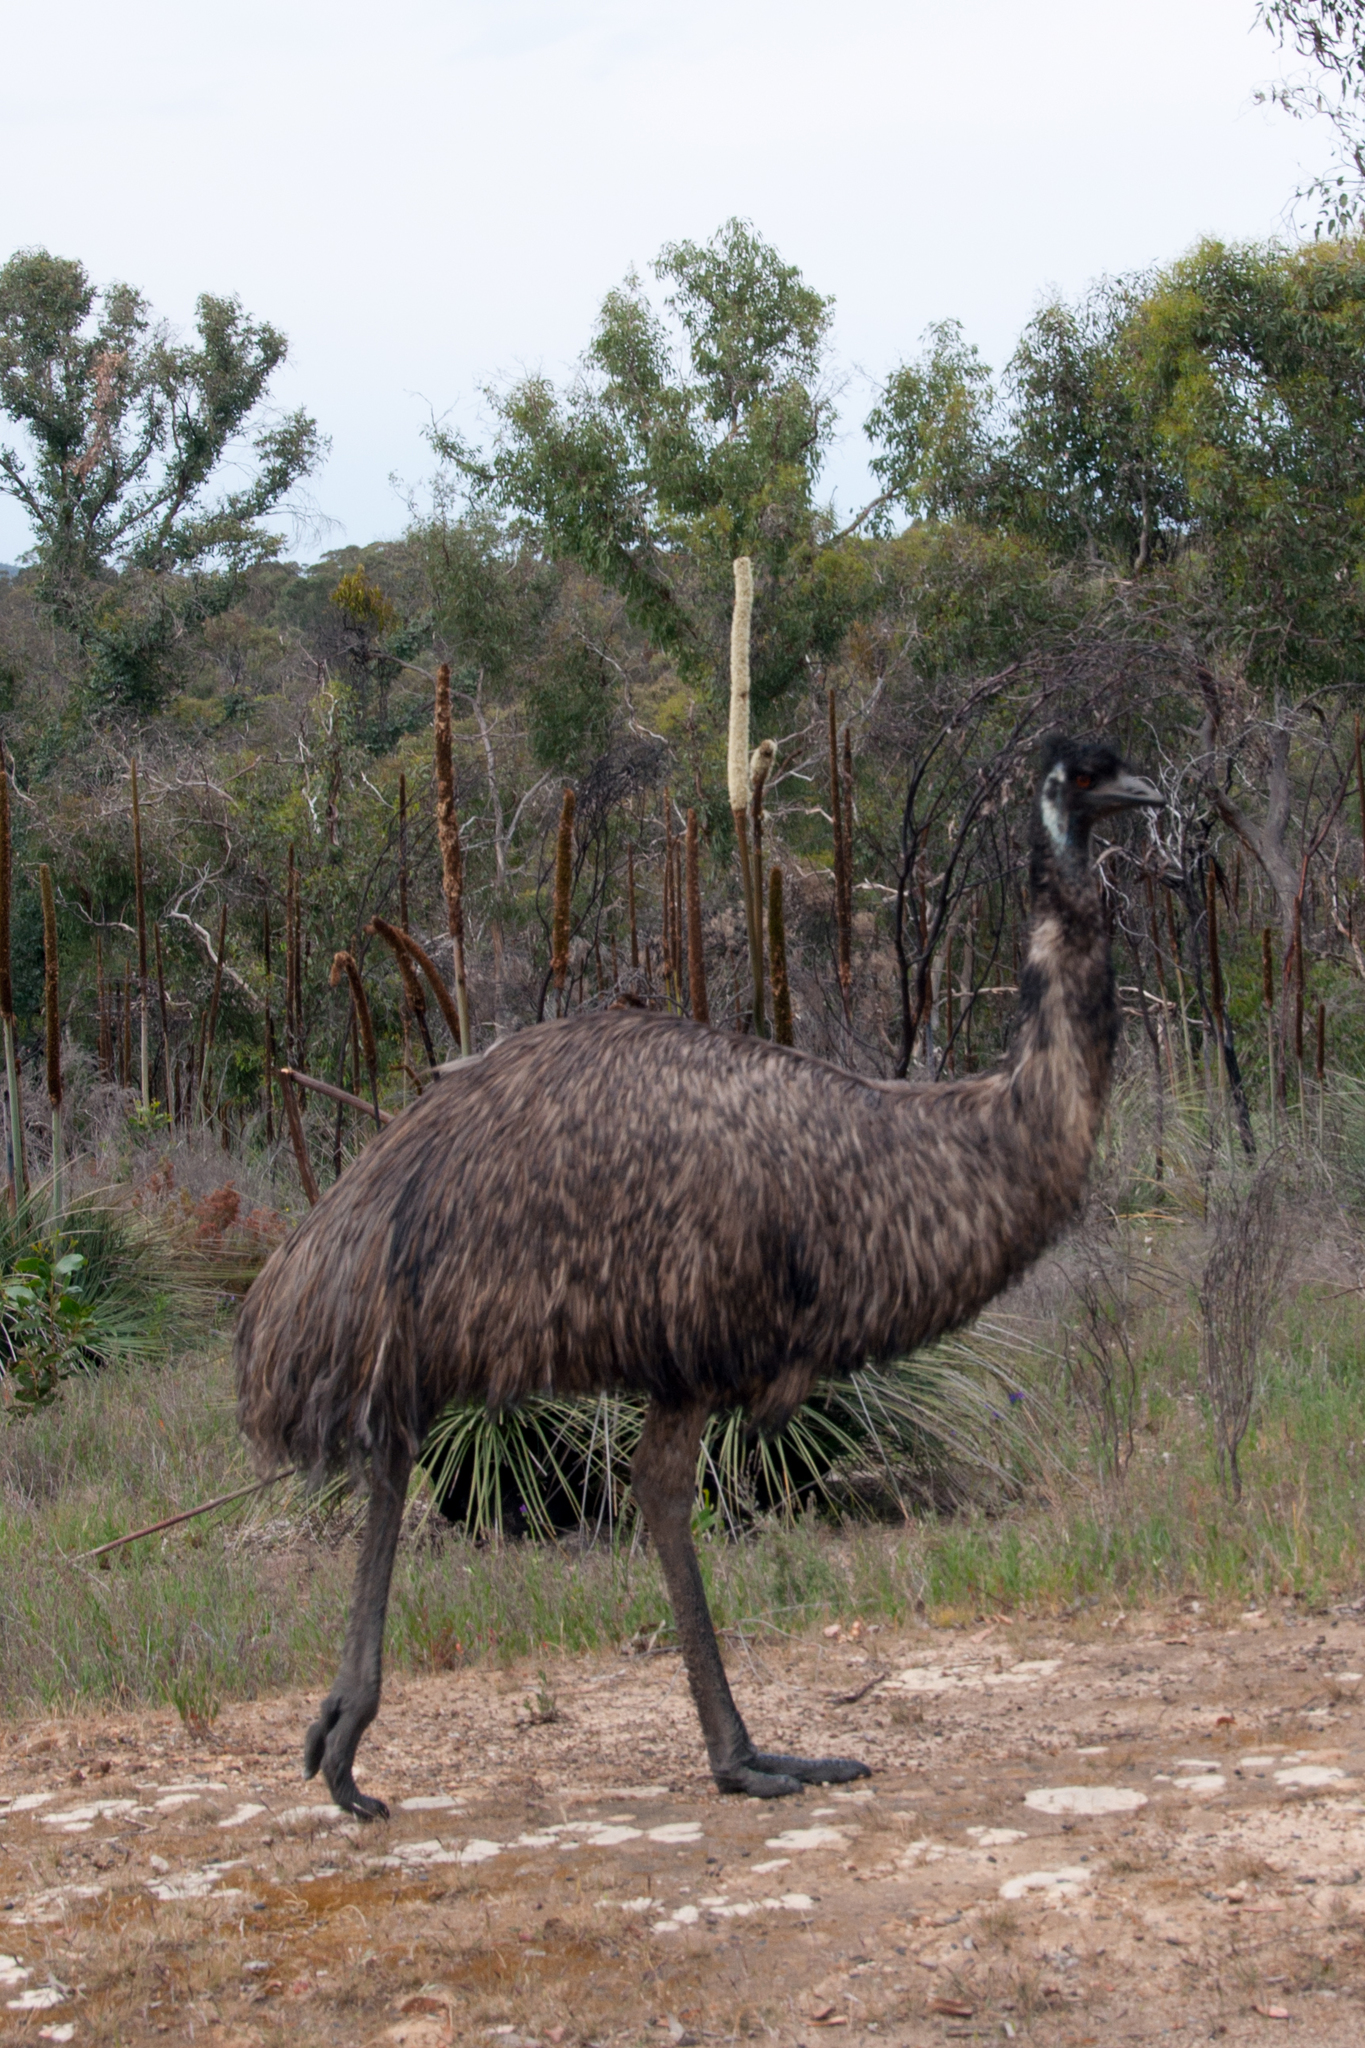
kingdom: Animalia
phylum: Chordata
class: Aves
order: Casuariiformes
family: Dromaiidae
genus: Dromaius
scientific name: Dromaius novaehollandiae
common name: Emu
